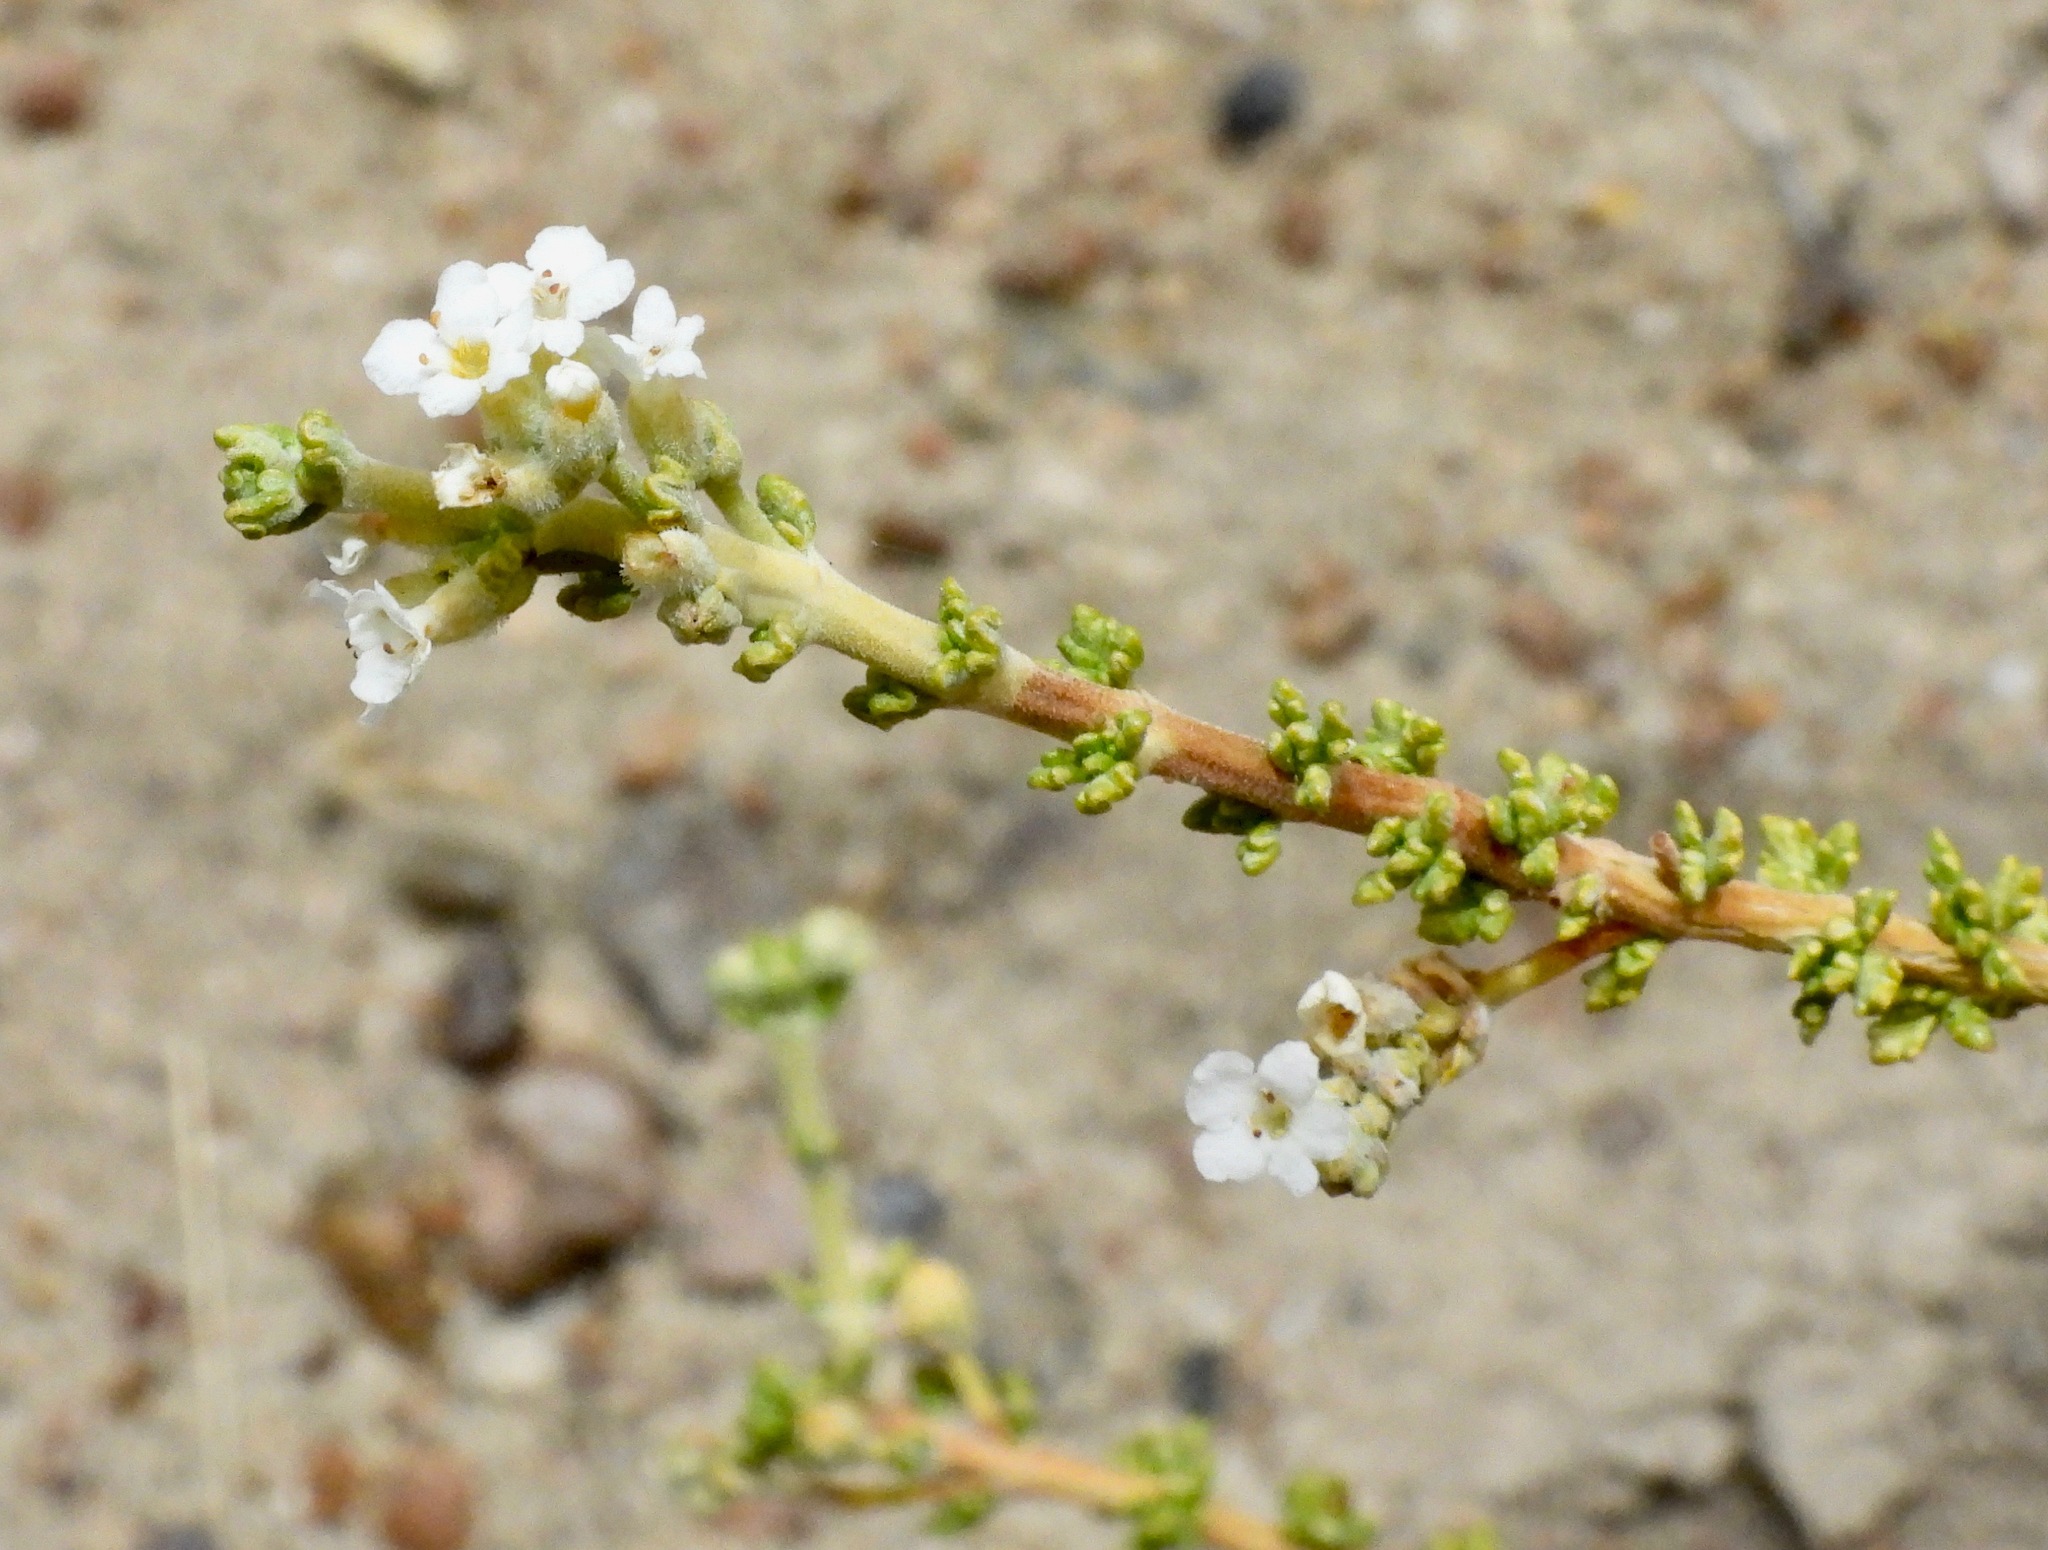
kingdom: Plantae
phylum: Tracheophyta
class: Magnoliopsida
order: Lamiales
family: Verbenaceae
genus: Acantholippia
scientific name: Acantholippia seriphioides
